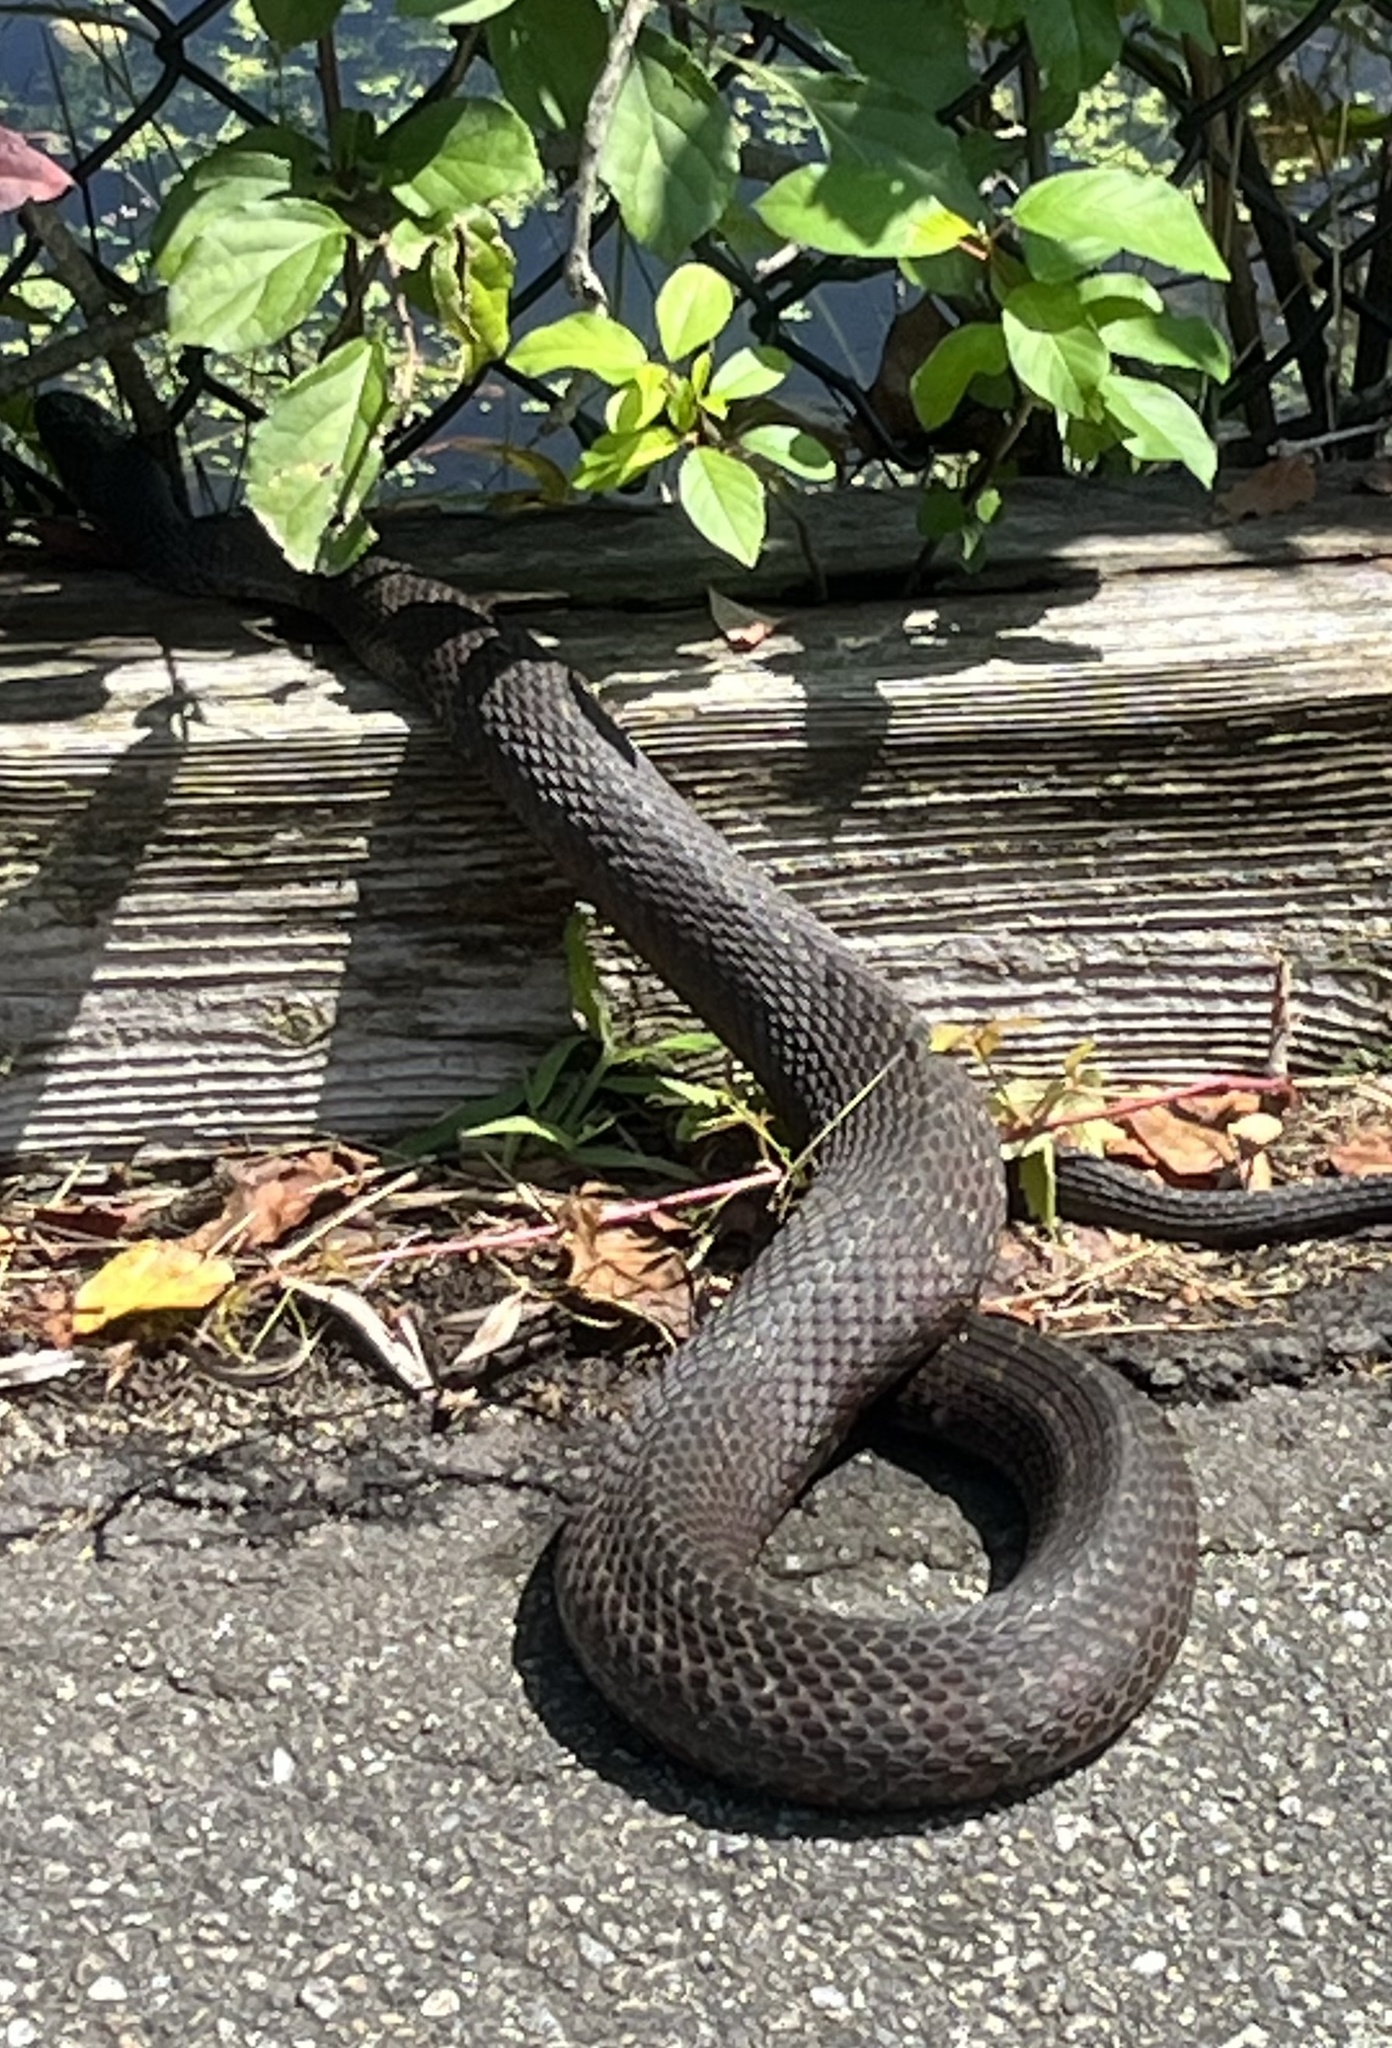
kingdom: Animalia
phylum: Chordata
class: Squamata
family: Colubridae
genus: Nerodia
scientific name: Nerodia sipedon
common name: Northern water snake
